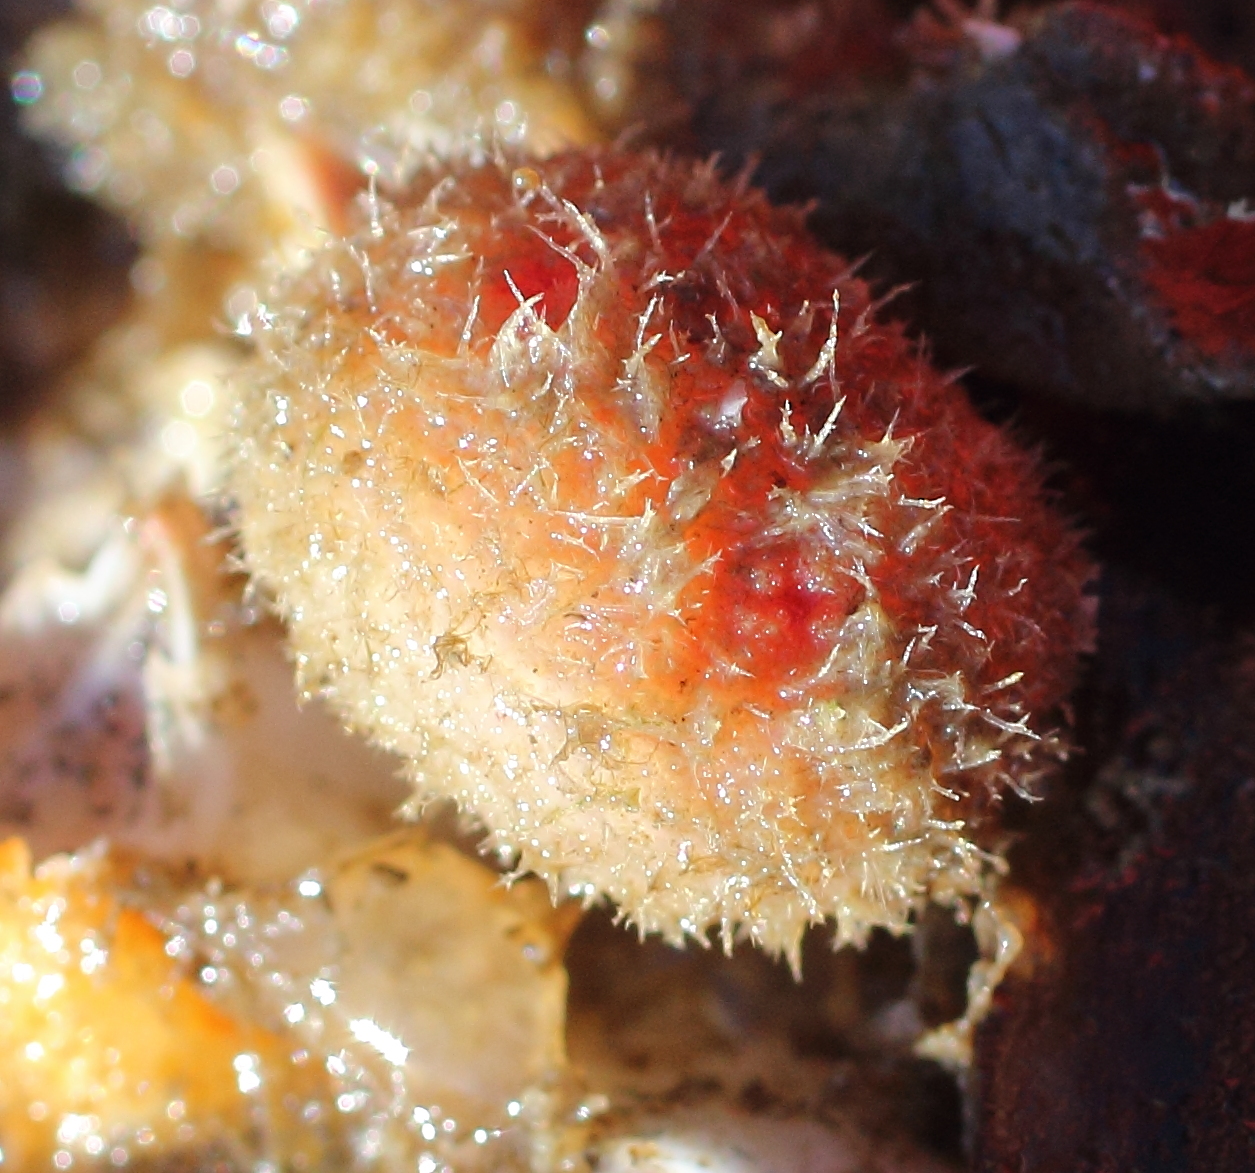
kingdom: Animalia
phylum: Chordata
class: Ascidiacea
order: Stolidobranchia
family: Pyuridae
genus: Boltenia
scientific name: Boltenia echinata
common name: Cactus sea squirt
